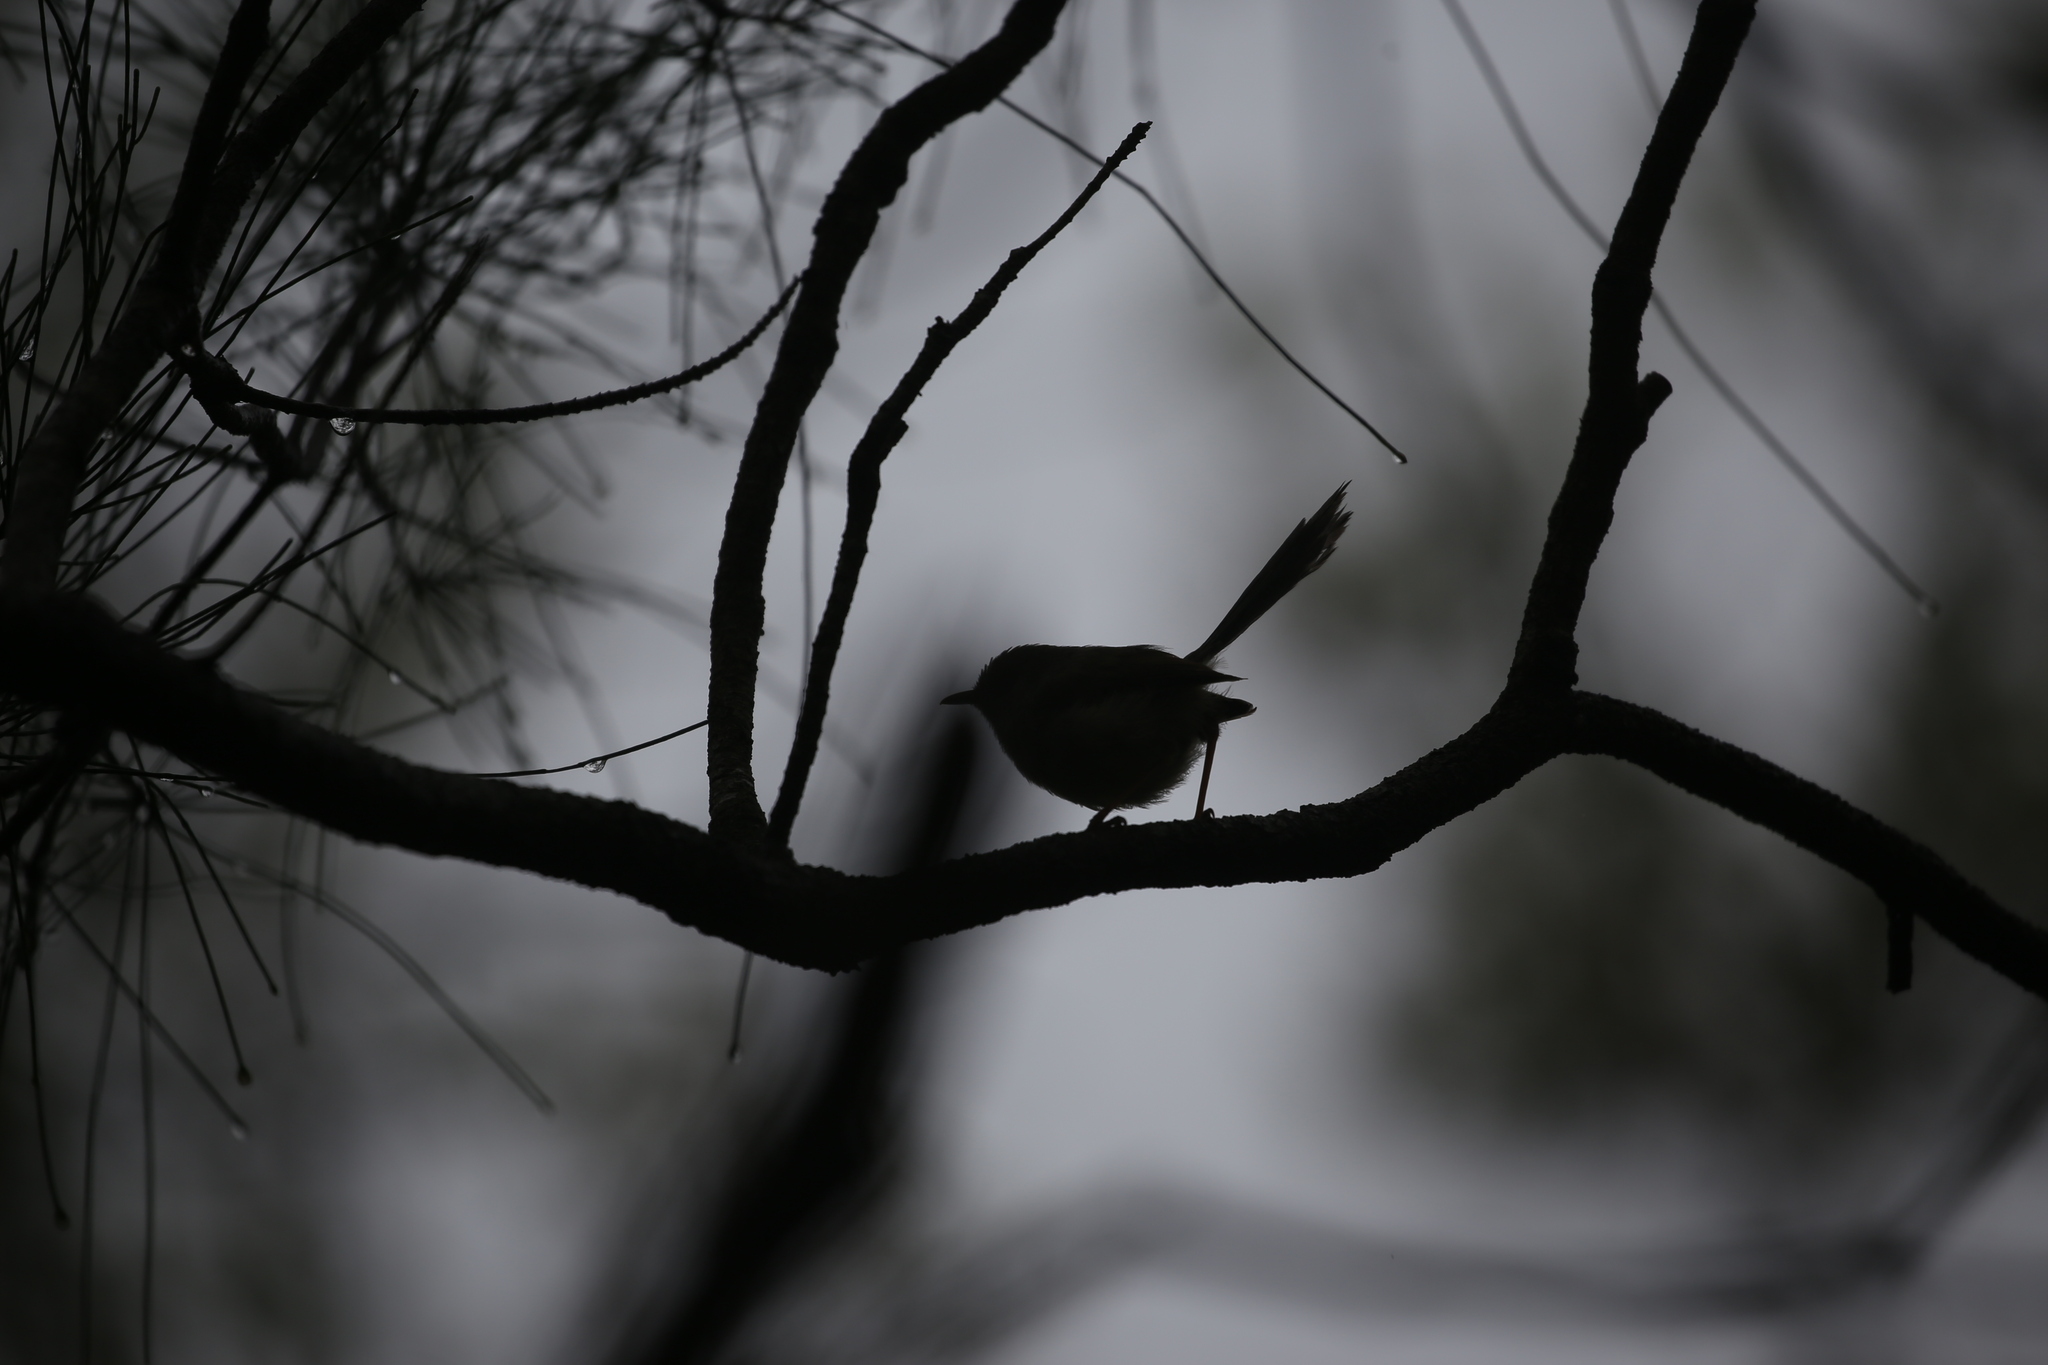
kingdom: Animalia
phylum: Chordata
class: Aves
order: Passeriformes
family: Maluridae
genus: Malurus
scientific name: Malurus lamberti
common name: Variegated fairywren
